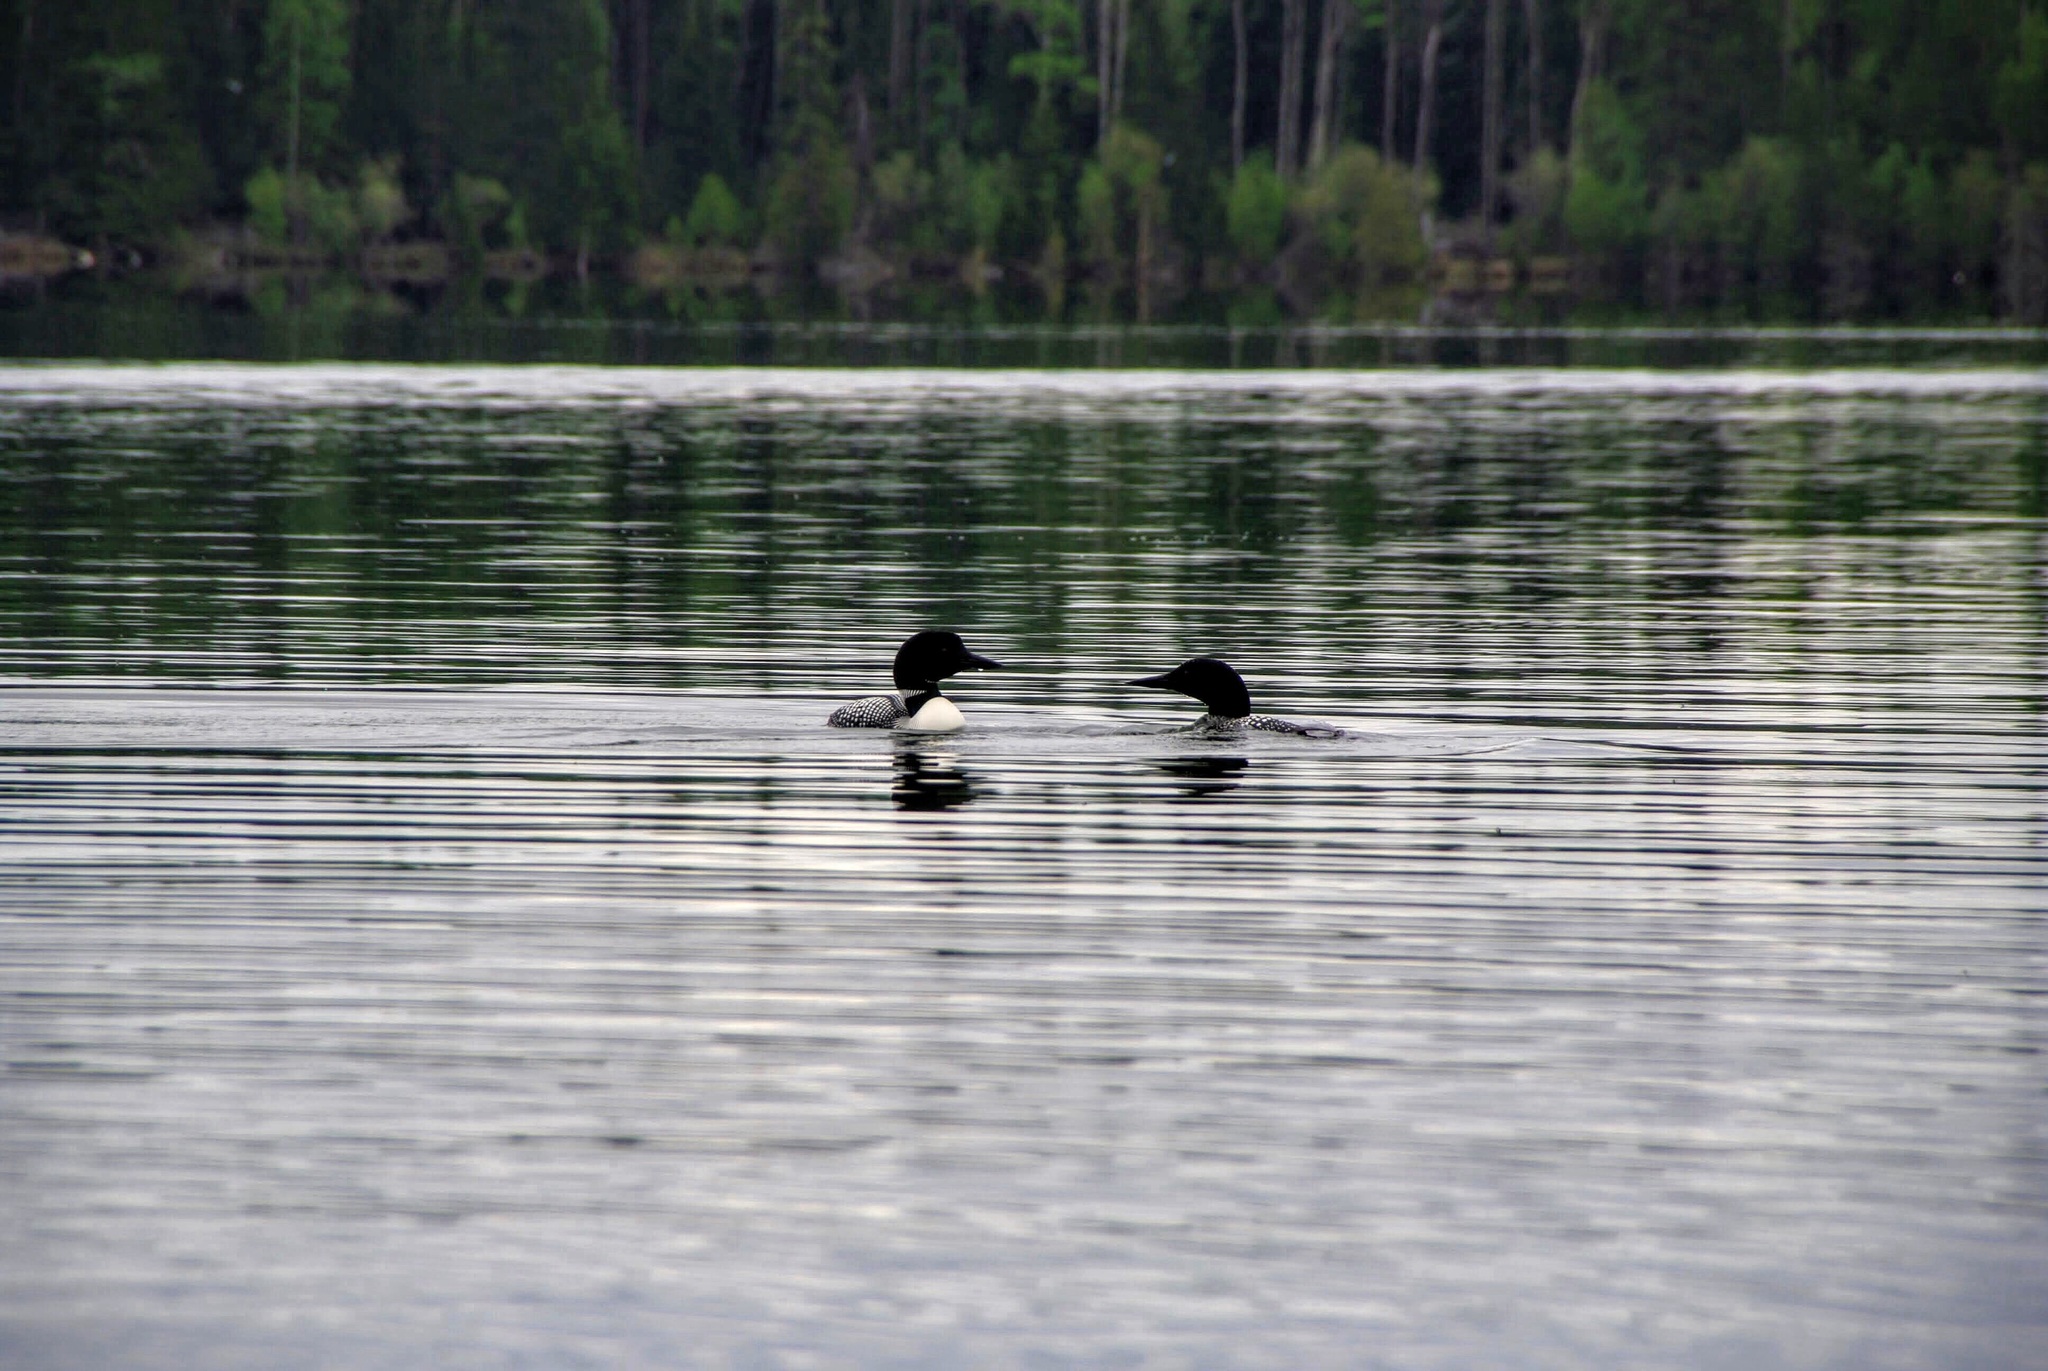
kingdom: Animalia
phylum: Chordata
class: Aves
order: Gaviiformes
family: Gaviidae
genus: Gavia
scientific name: Gavia immer
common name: Common loon
